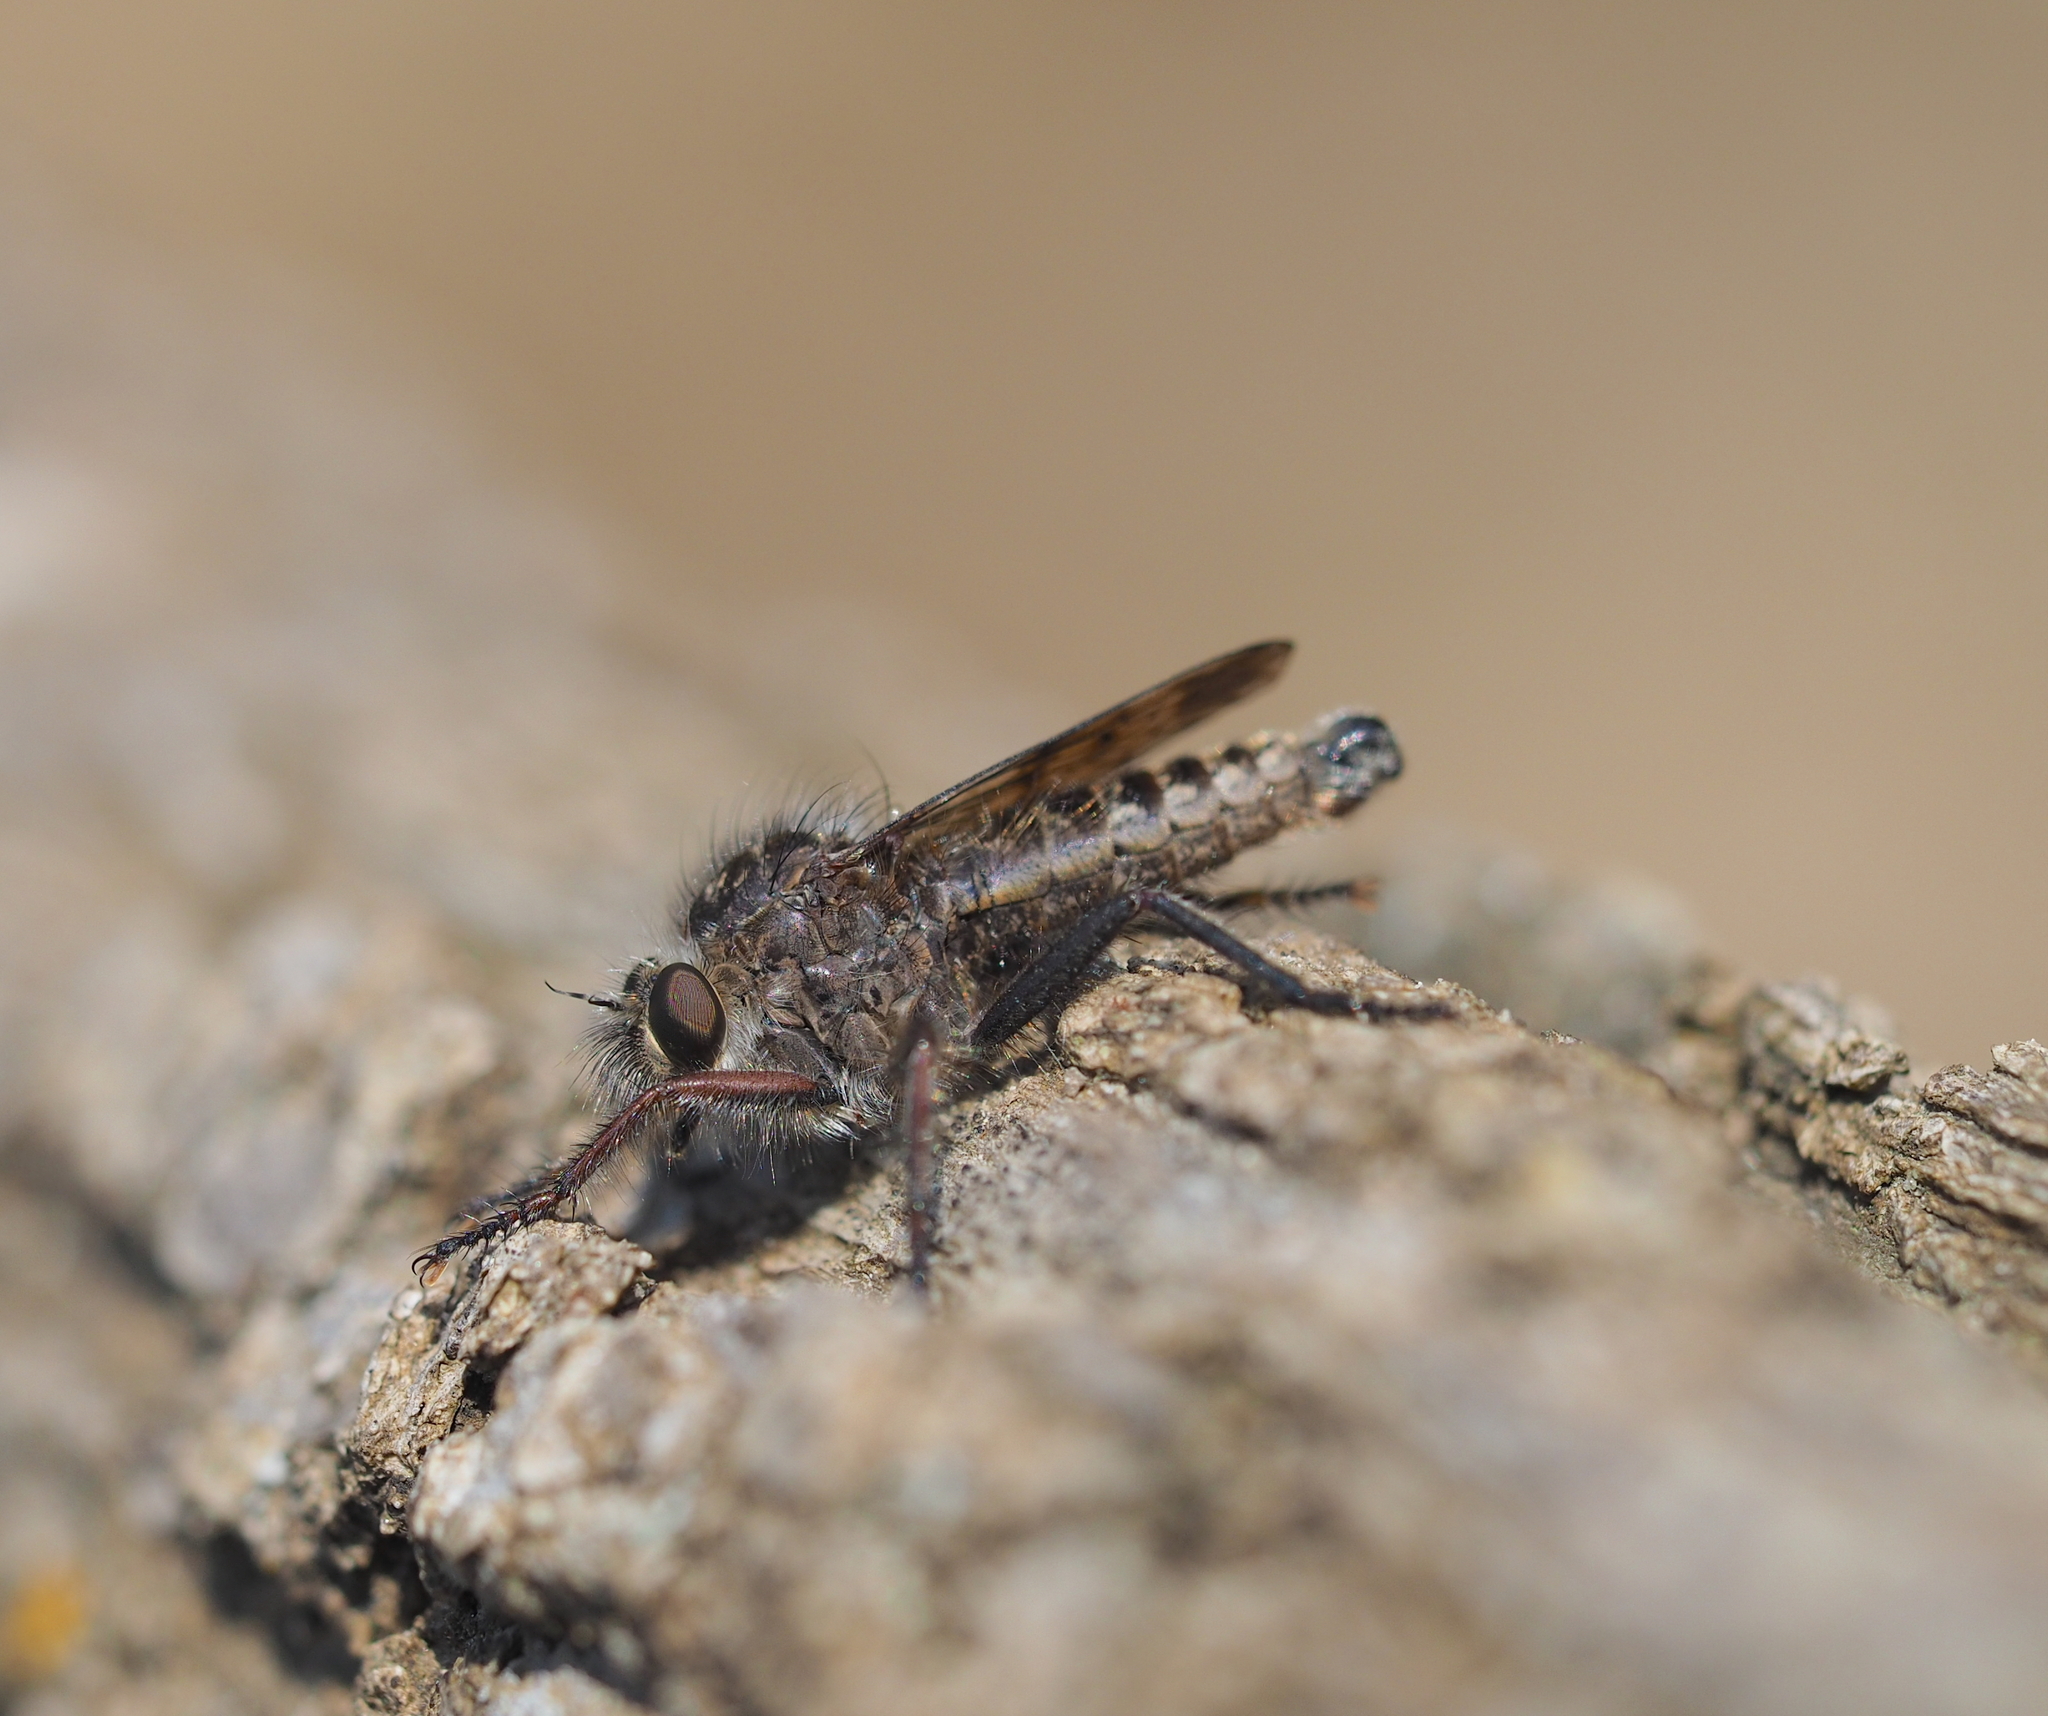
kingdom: Animalia
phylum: Arthropoda
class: Insecta
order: Diptera
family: Asilidae
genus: Erax
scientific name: Erax barbatus
